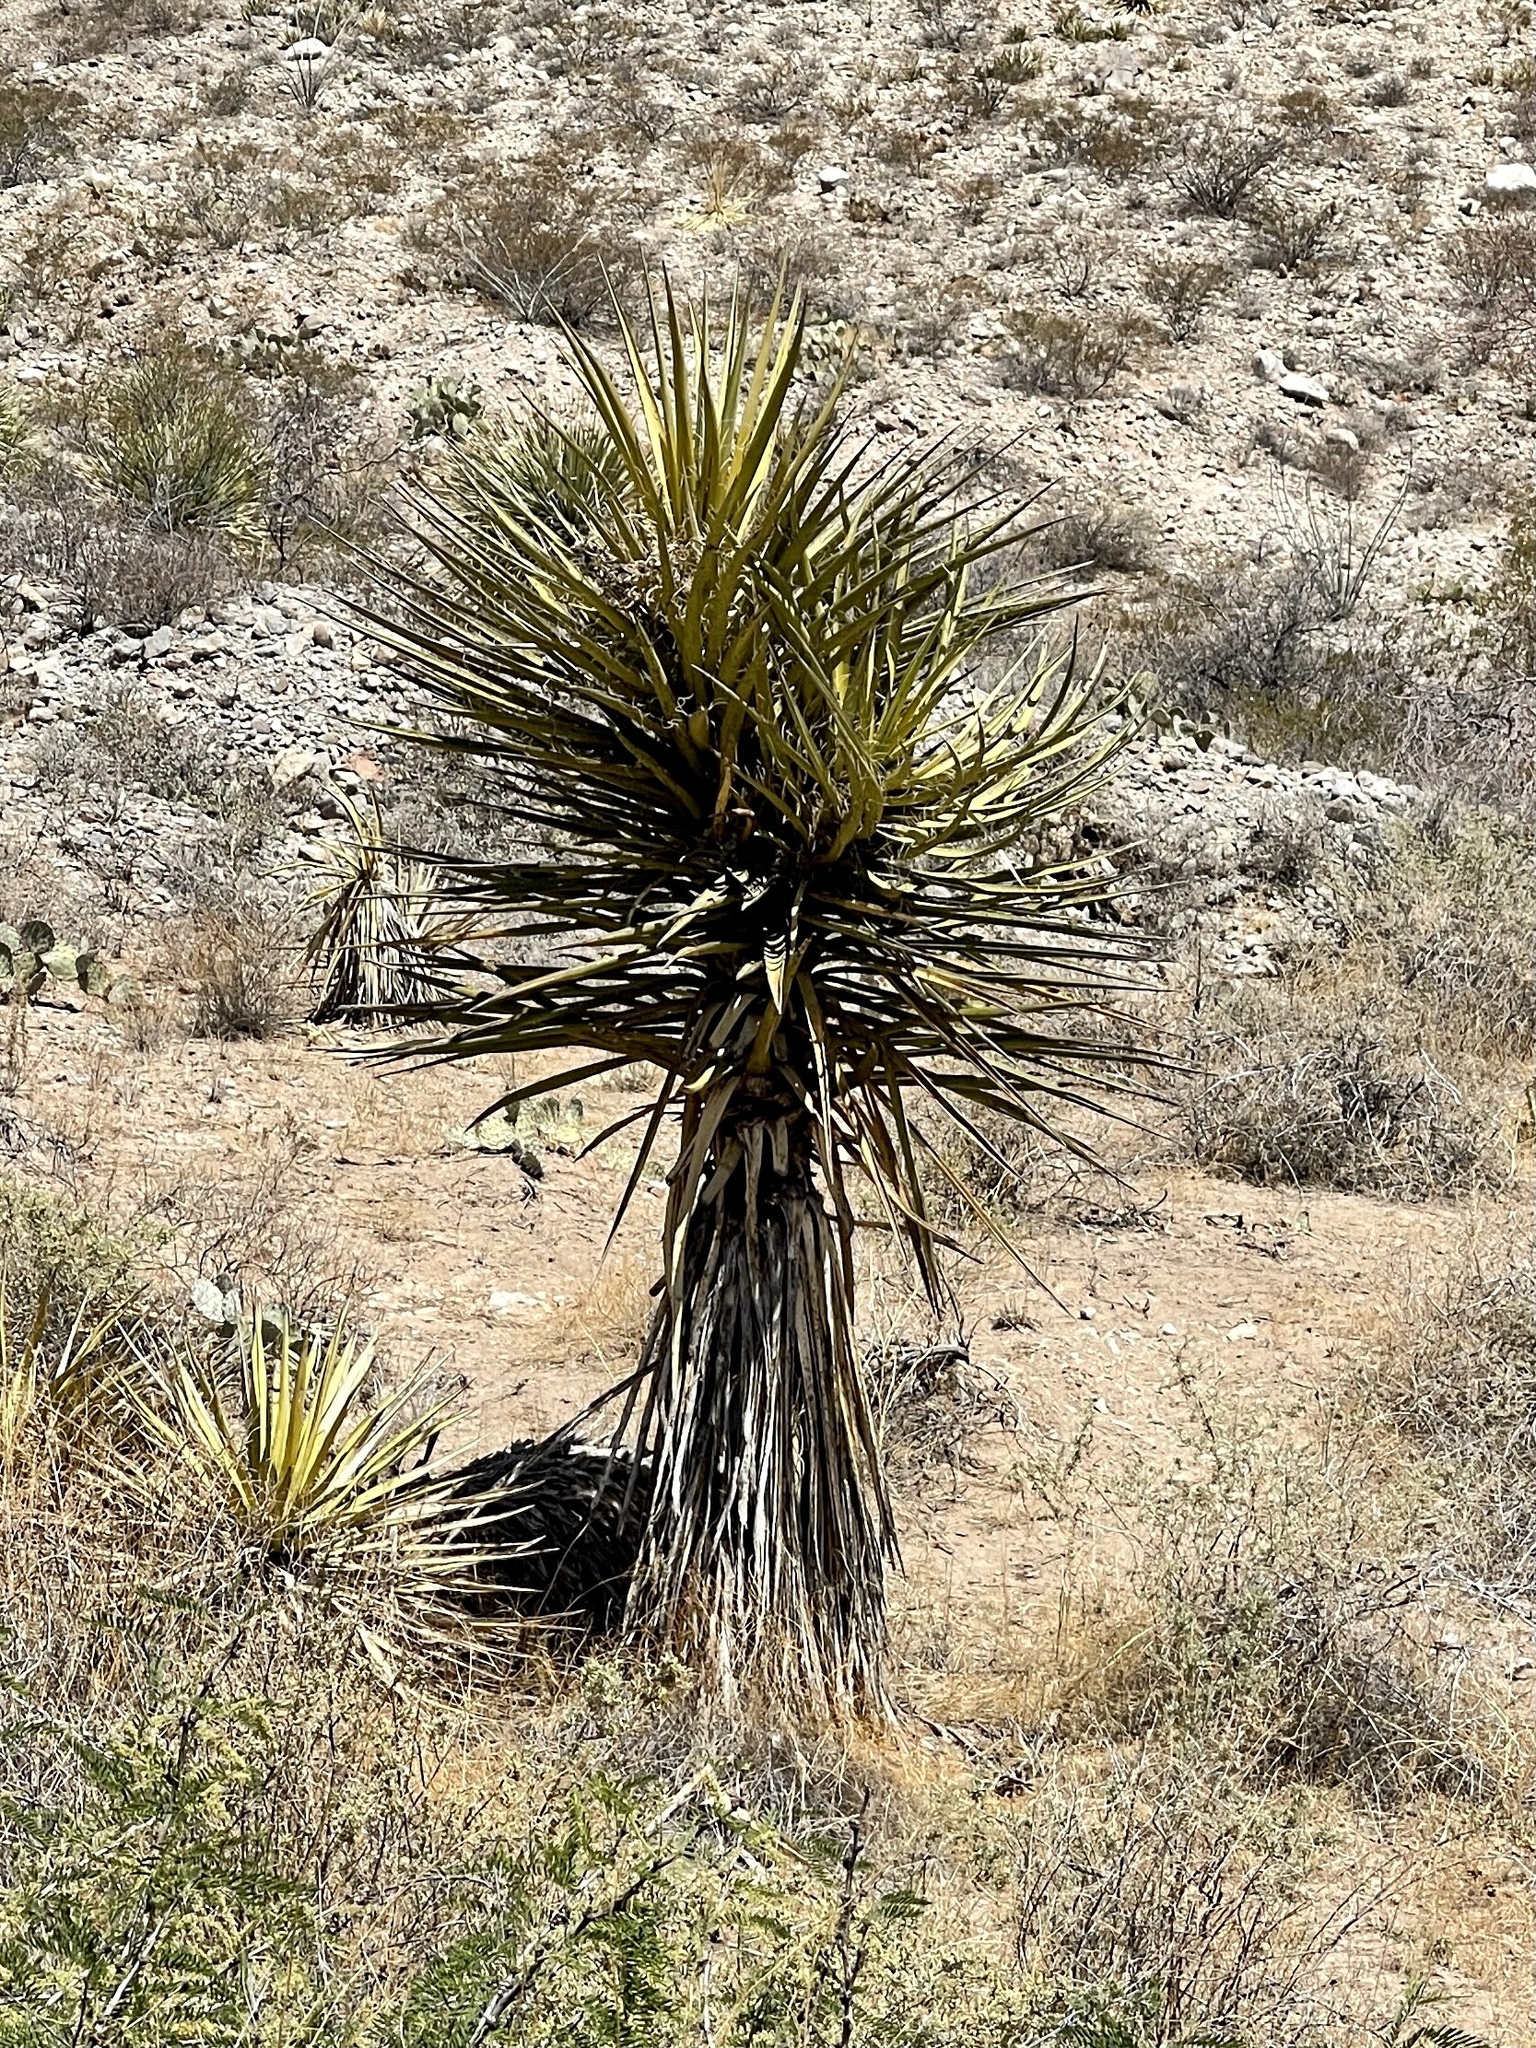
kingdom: Plantae
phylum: Tracheophyta
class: Liliopsida
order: Asparagales
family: Asparagaceae
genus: Yucca
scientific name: Yucca treculiana
